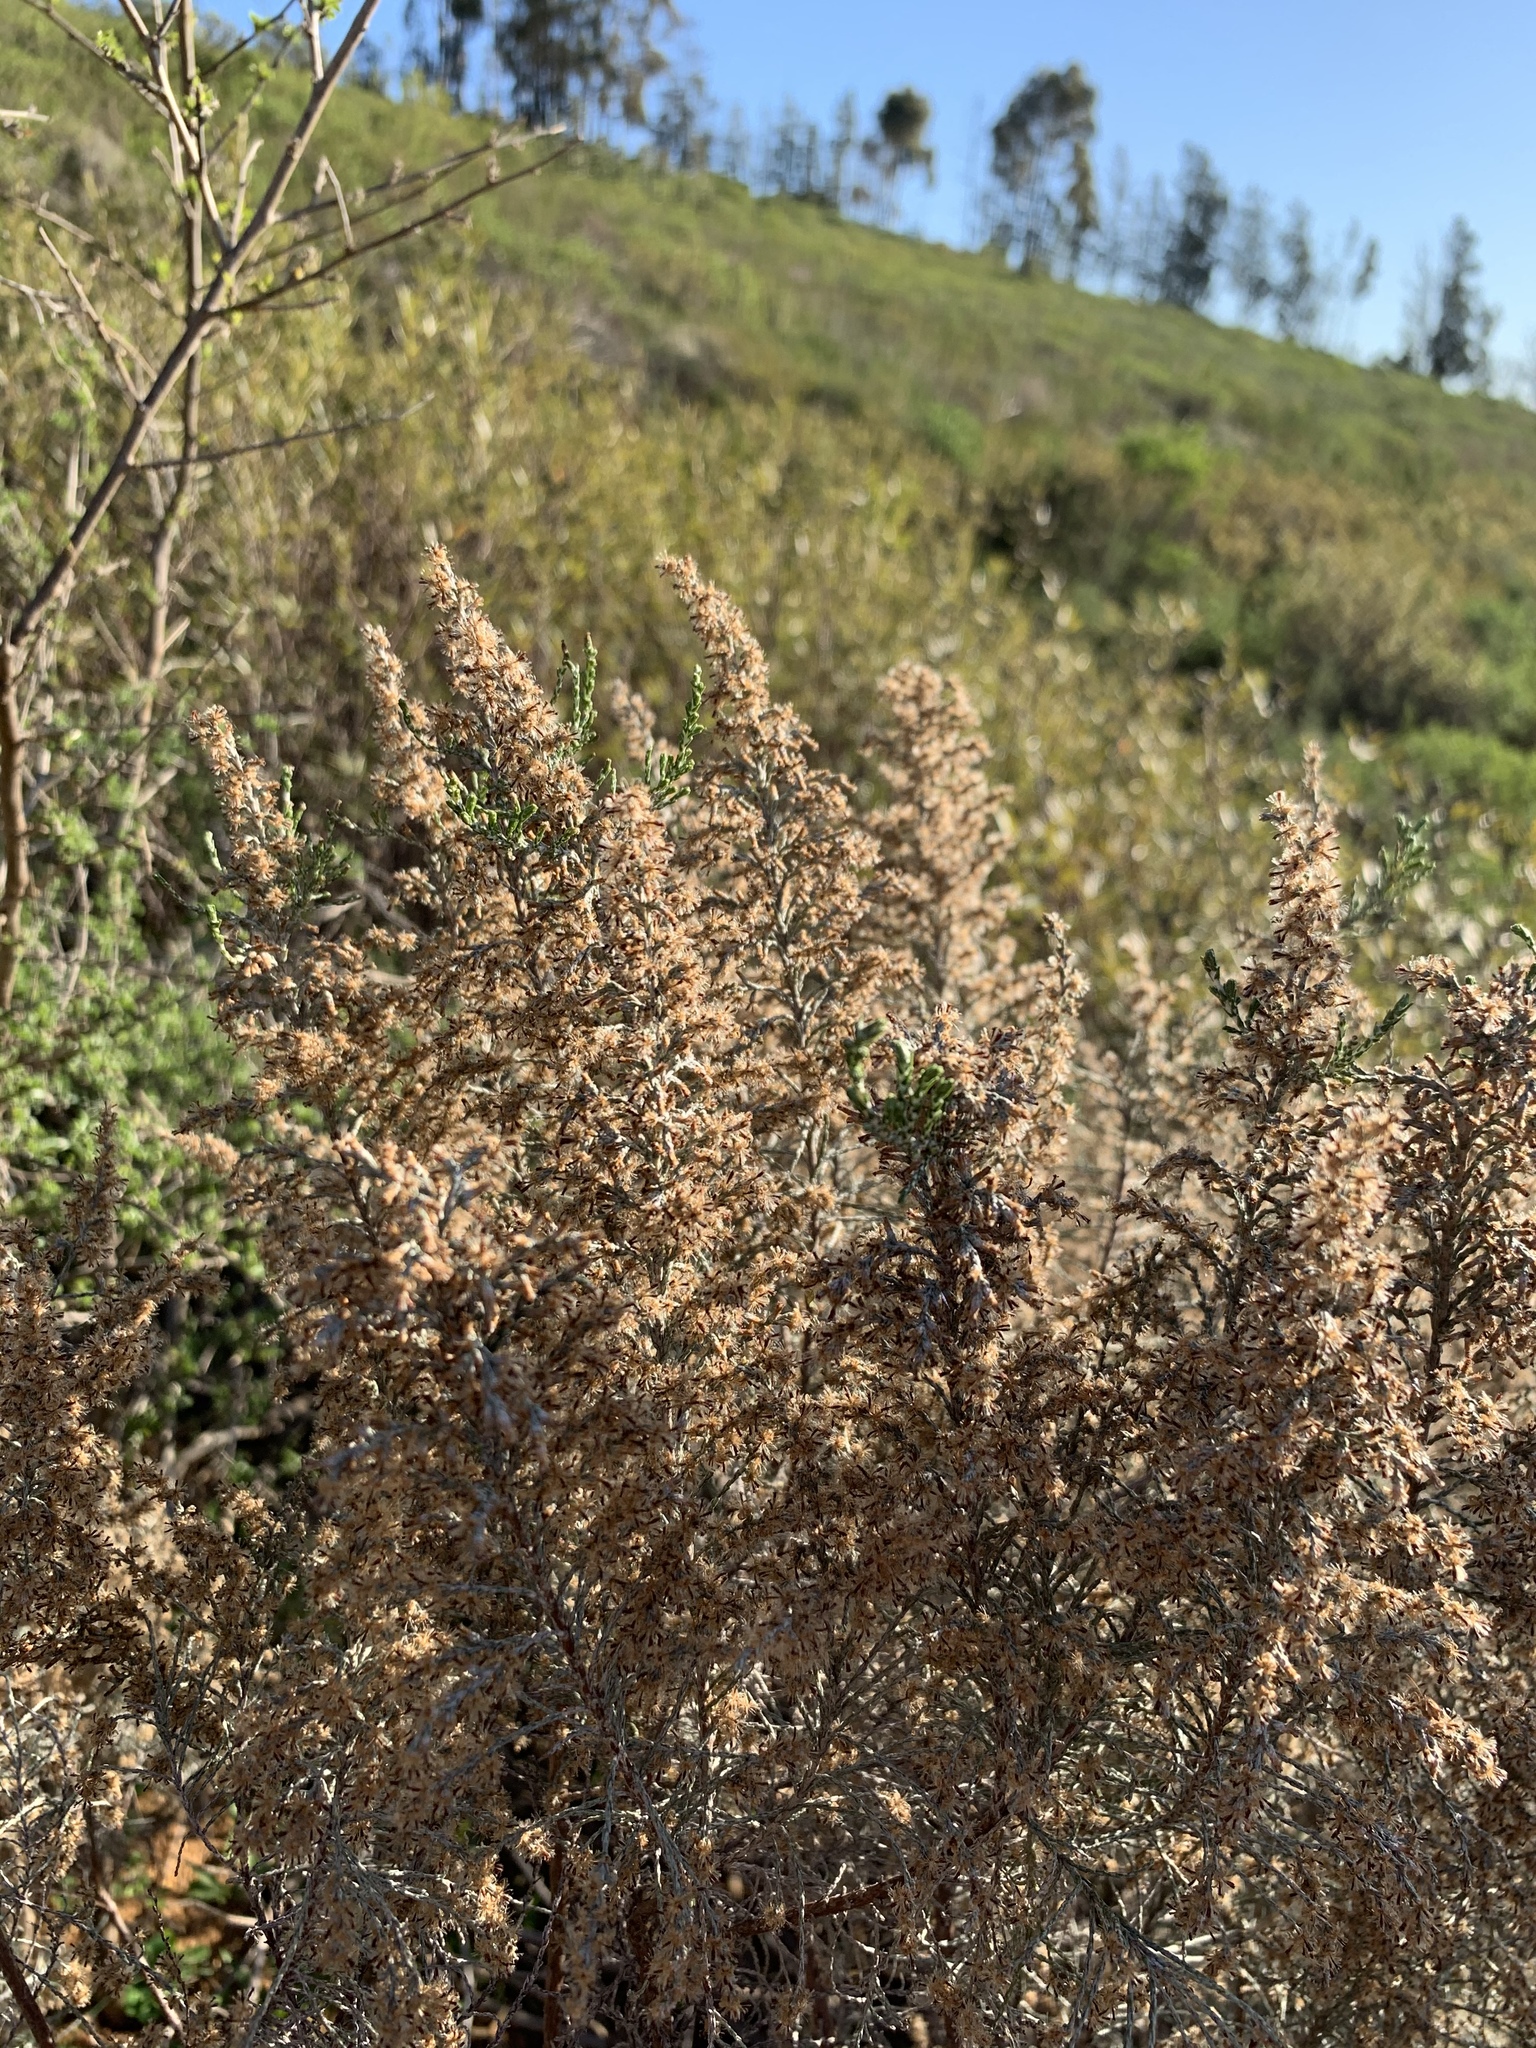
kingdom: Plantae
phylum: Tracheophyta
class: Magnoliopsida
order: Asterales
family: Asteraceae
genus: Dicerothamnus
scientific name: Dicerothamnus rhinocerotis
